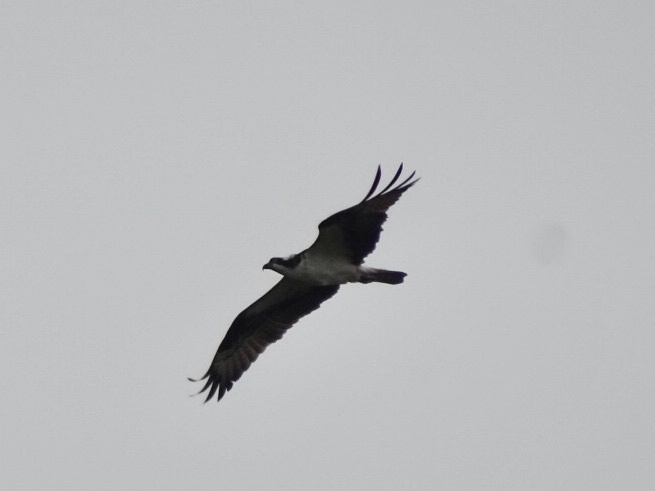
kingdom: Animalia
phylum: Chordata
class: Aves
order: Accipitriformes
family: Pandionidae
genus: Pandion
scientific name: Pandion haliaetus
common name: Osprey
